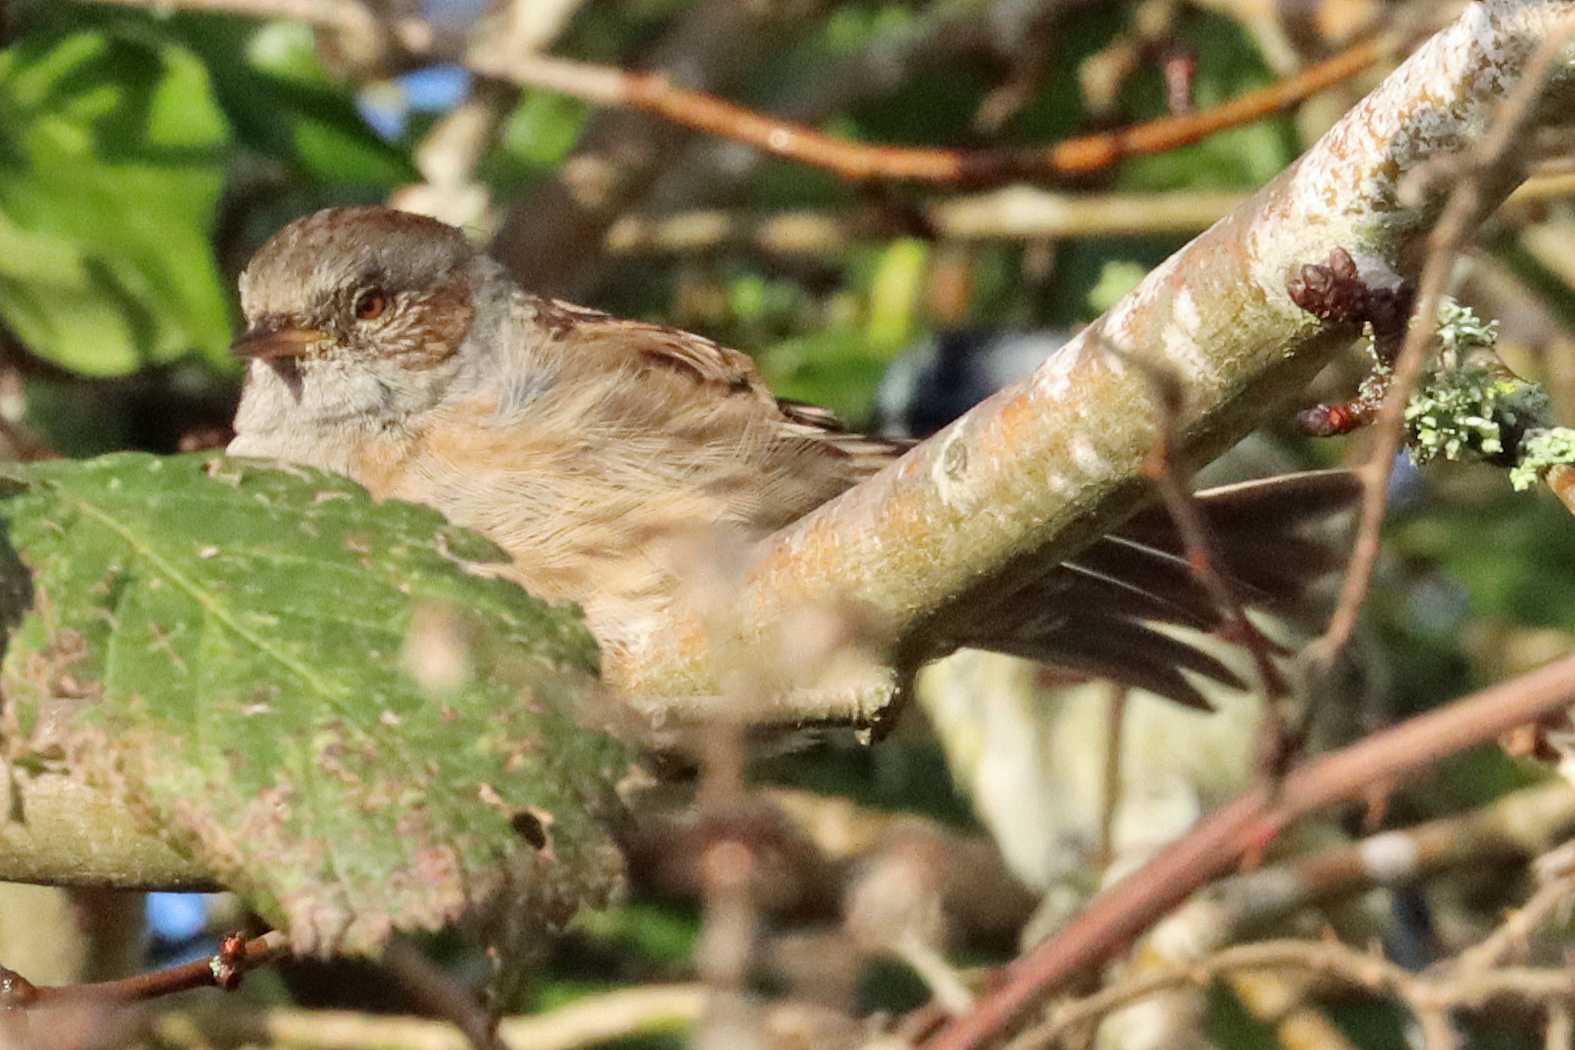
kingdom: Animalia
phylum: Chordata
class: Aves
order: Passeriformes
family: Prunellidae
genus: Prunella
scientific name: Prunella modularis
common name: Dunnock
